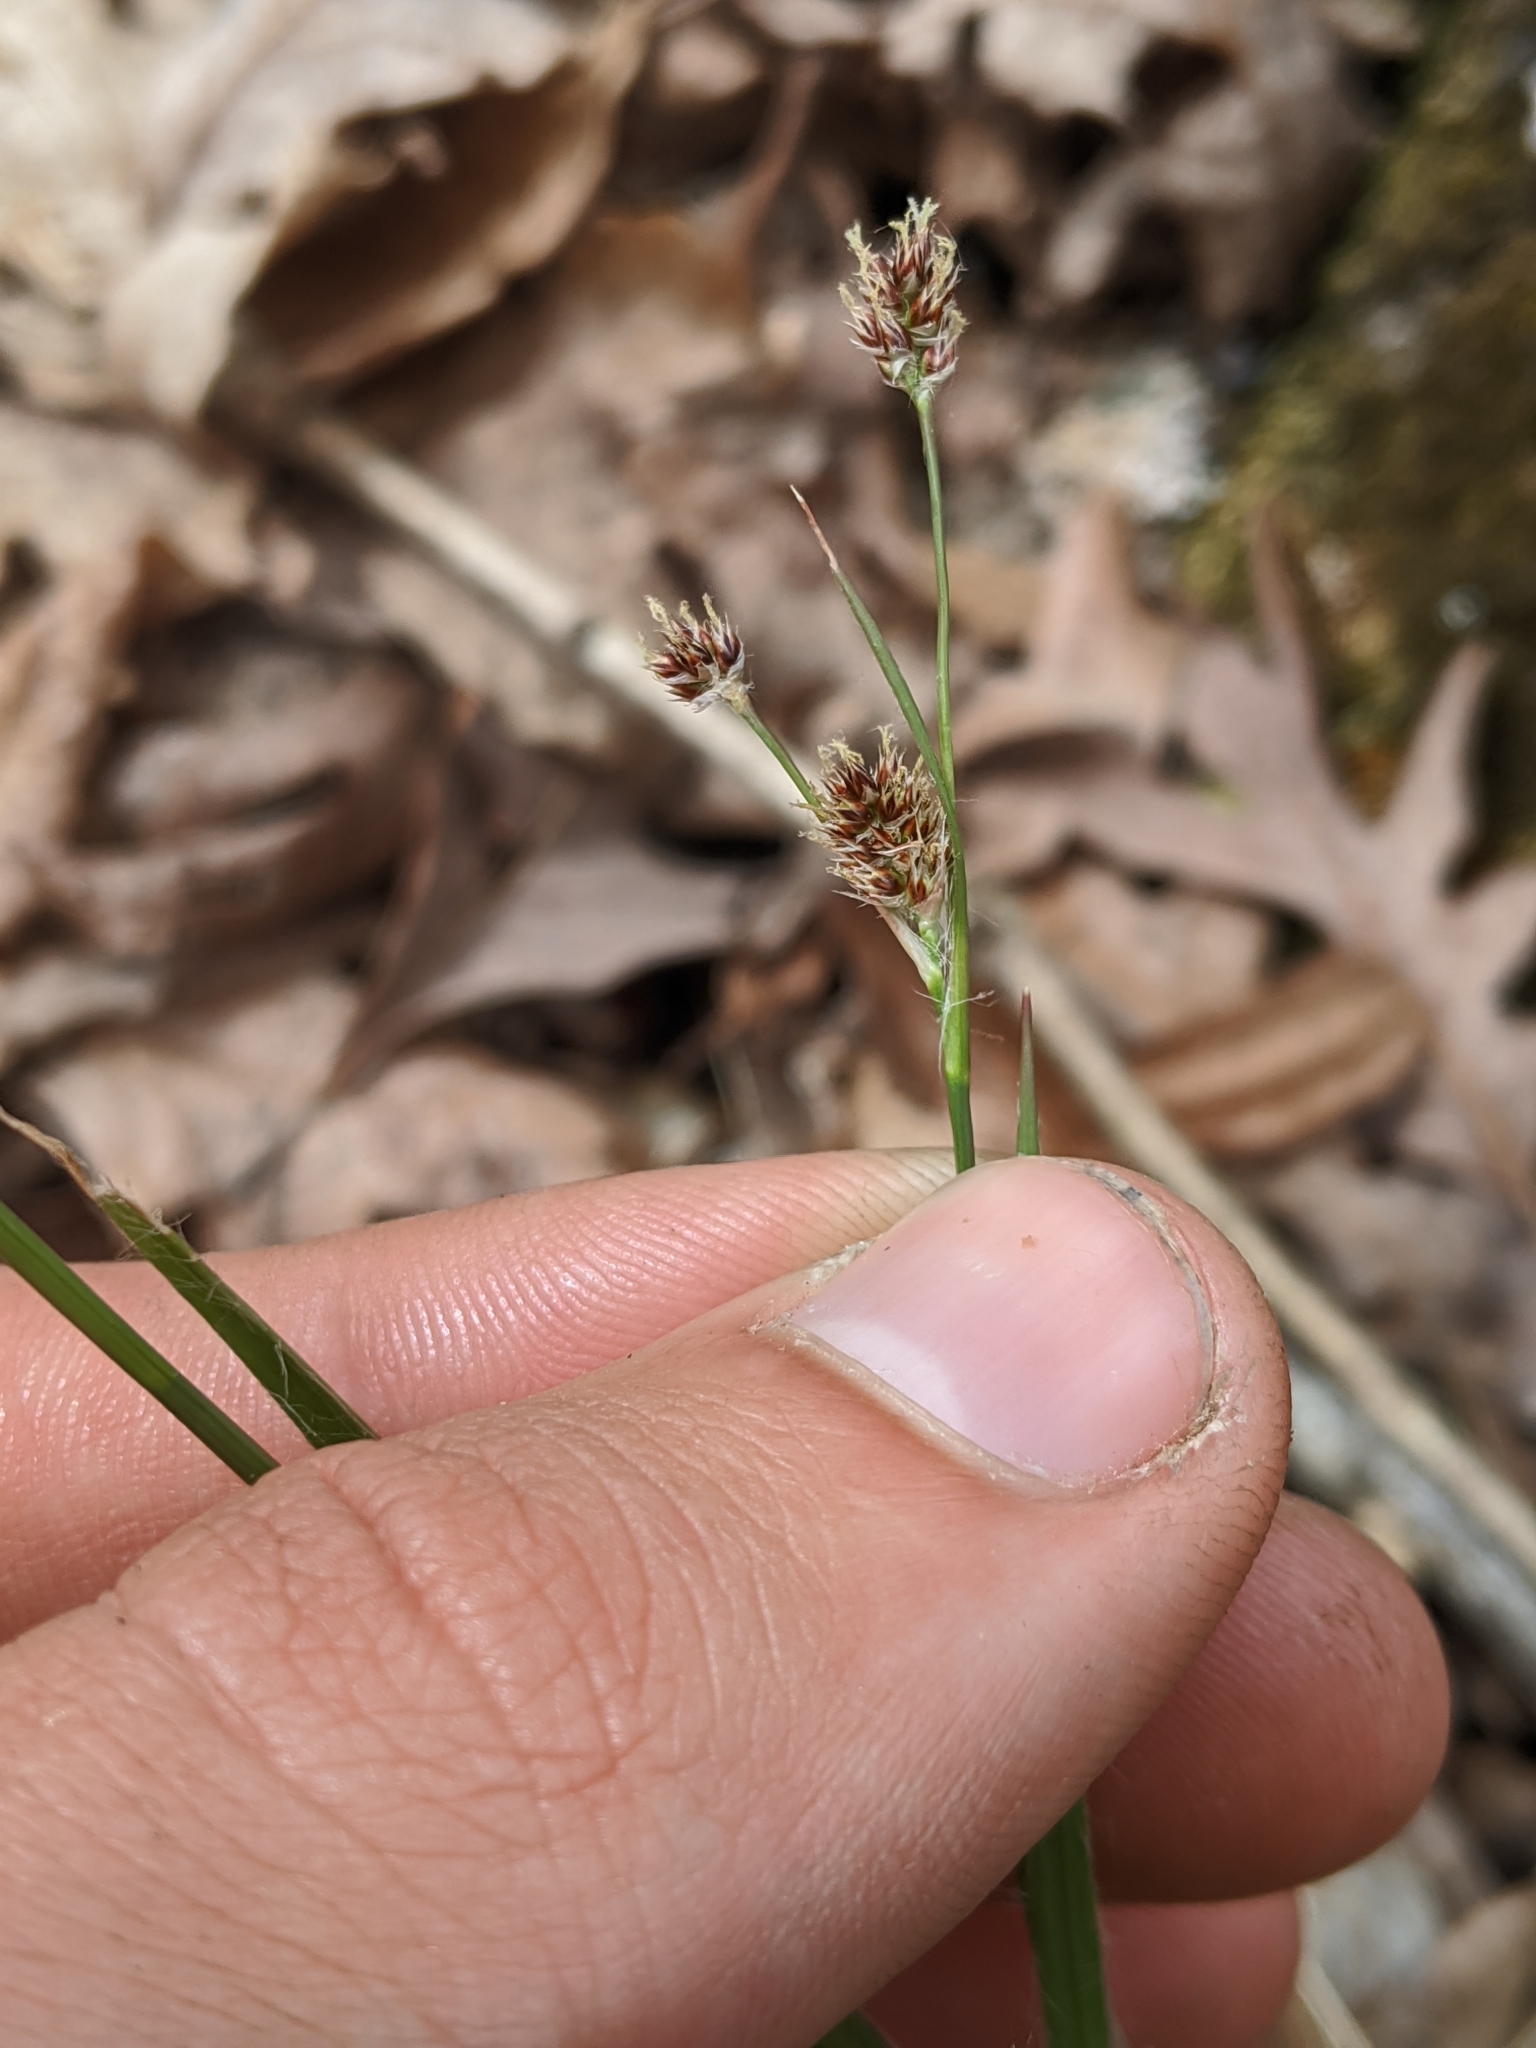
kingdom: Plantae
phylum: Tracheophyta
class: Liliopsida
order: Poales
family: Juncaceae
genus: Luzula
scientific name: Luzula bulbosa
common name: Bulbous woodrush
